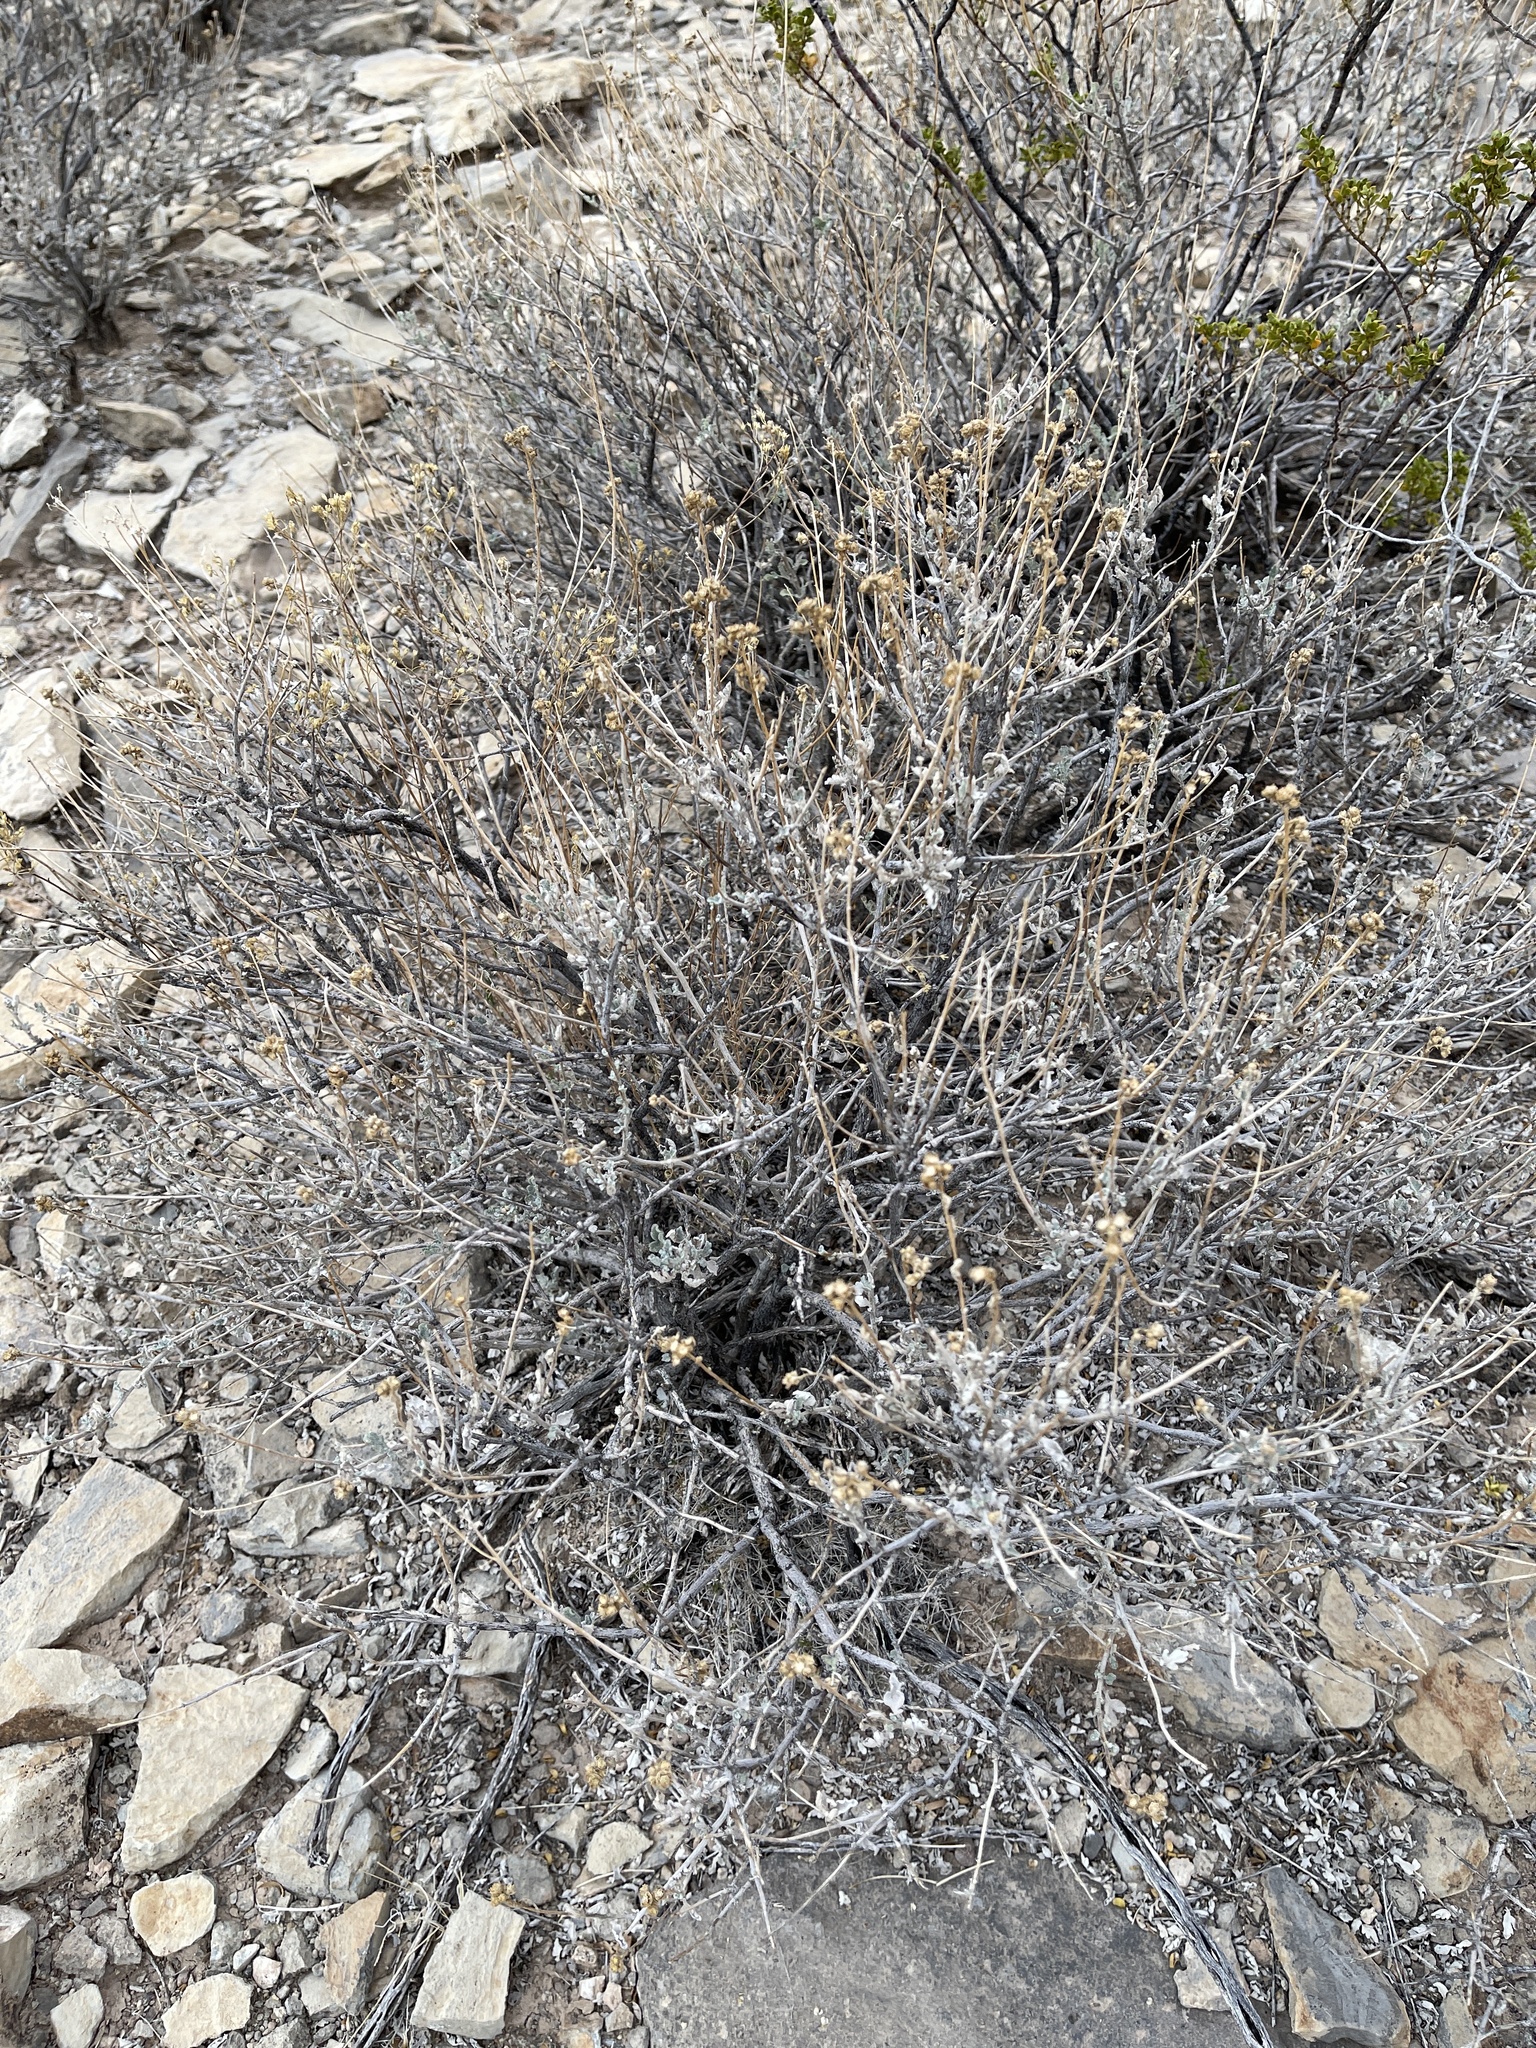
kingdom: Plantae
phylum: Tracheophyta
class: Magnoliopsida
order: Asterales
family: Asteraceae
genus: Parthenium
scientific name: Parthenium incanum
